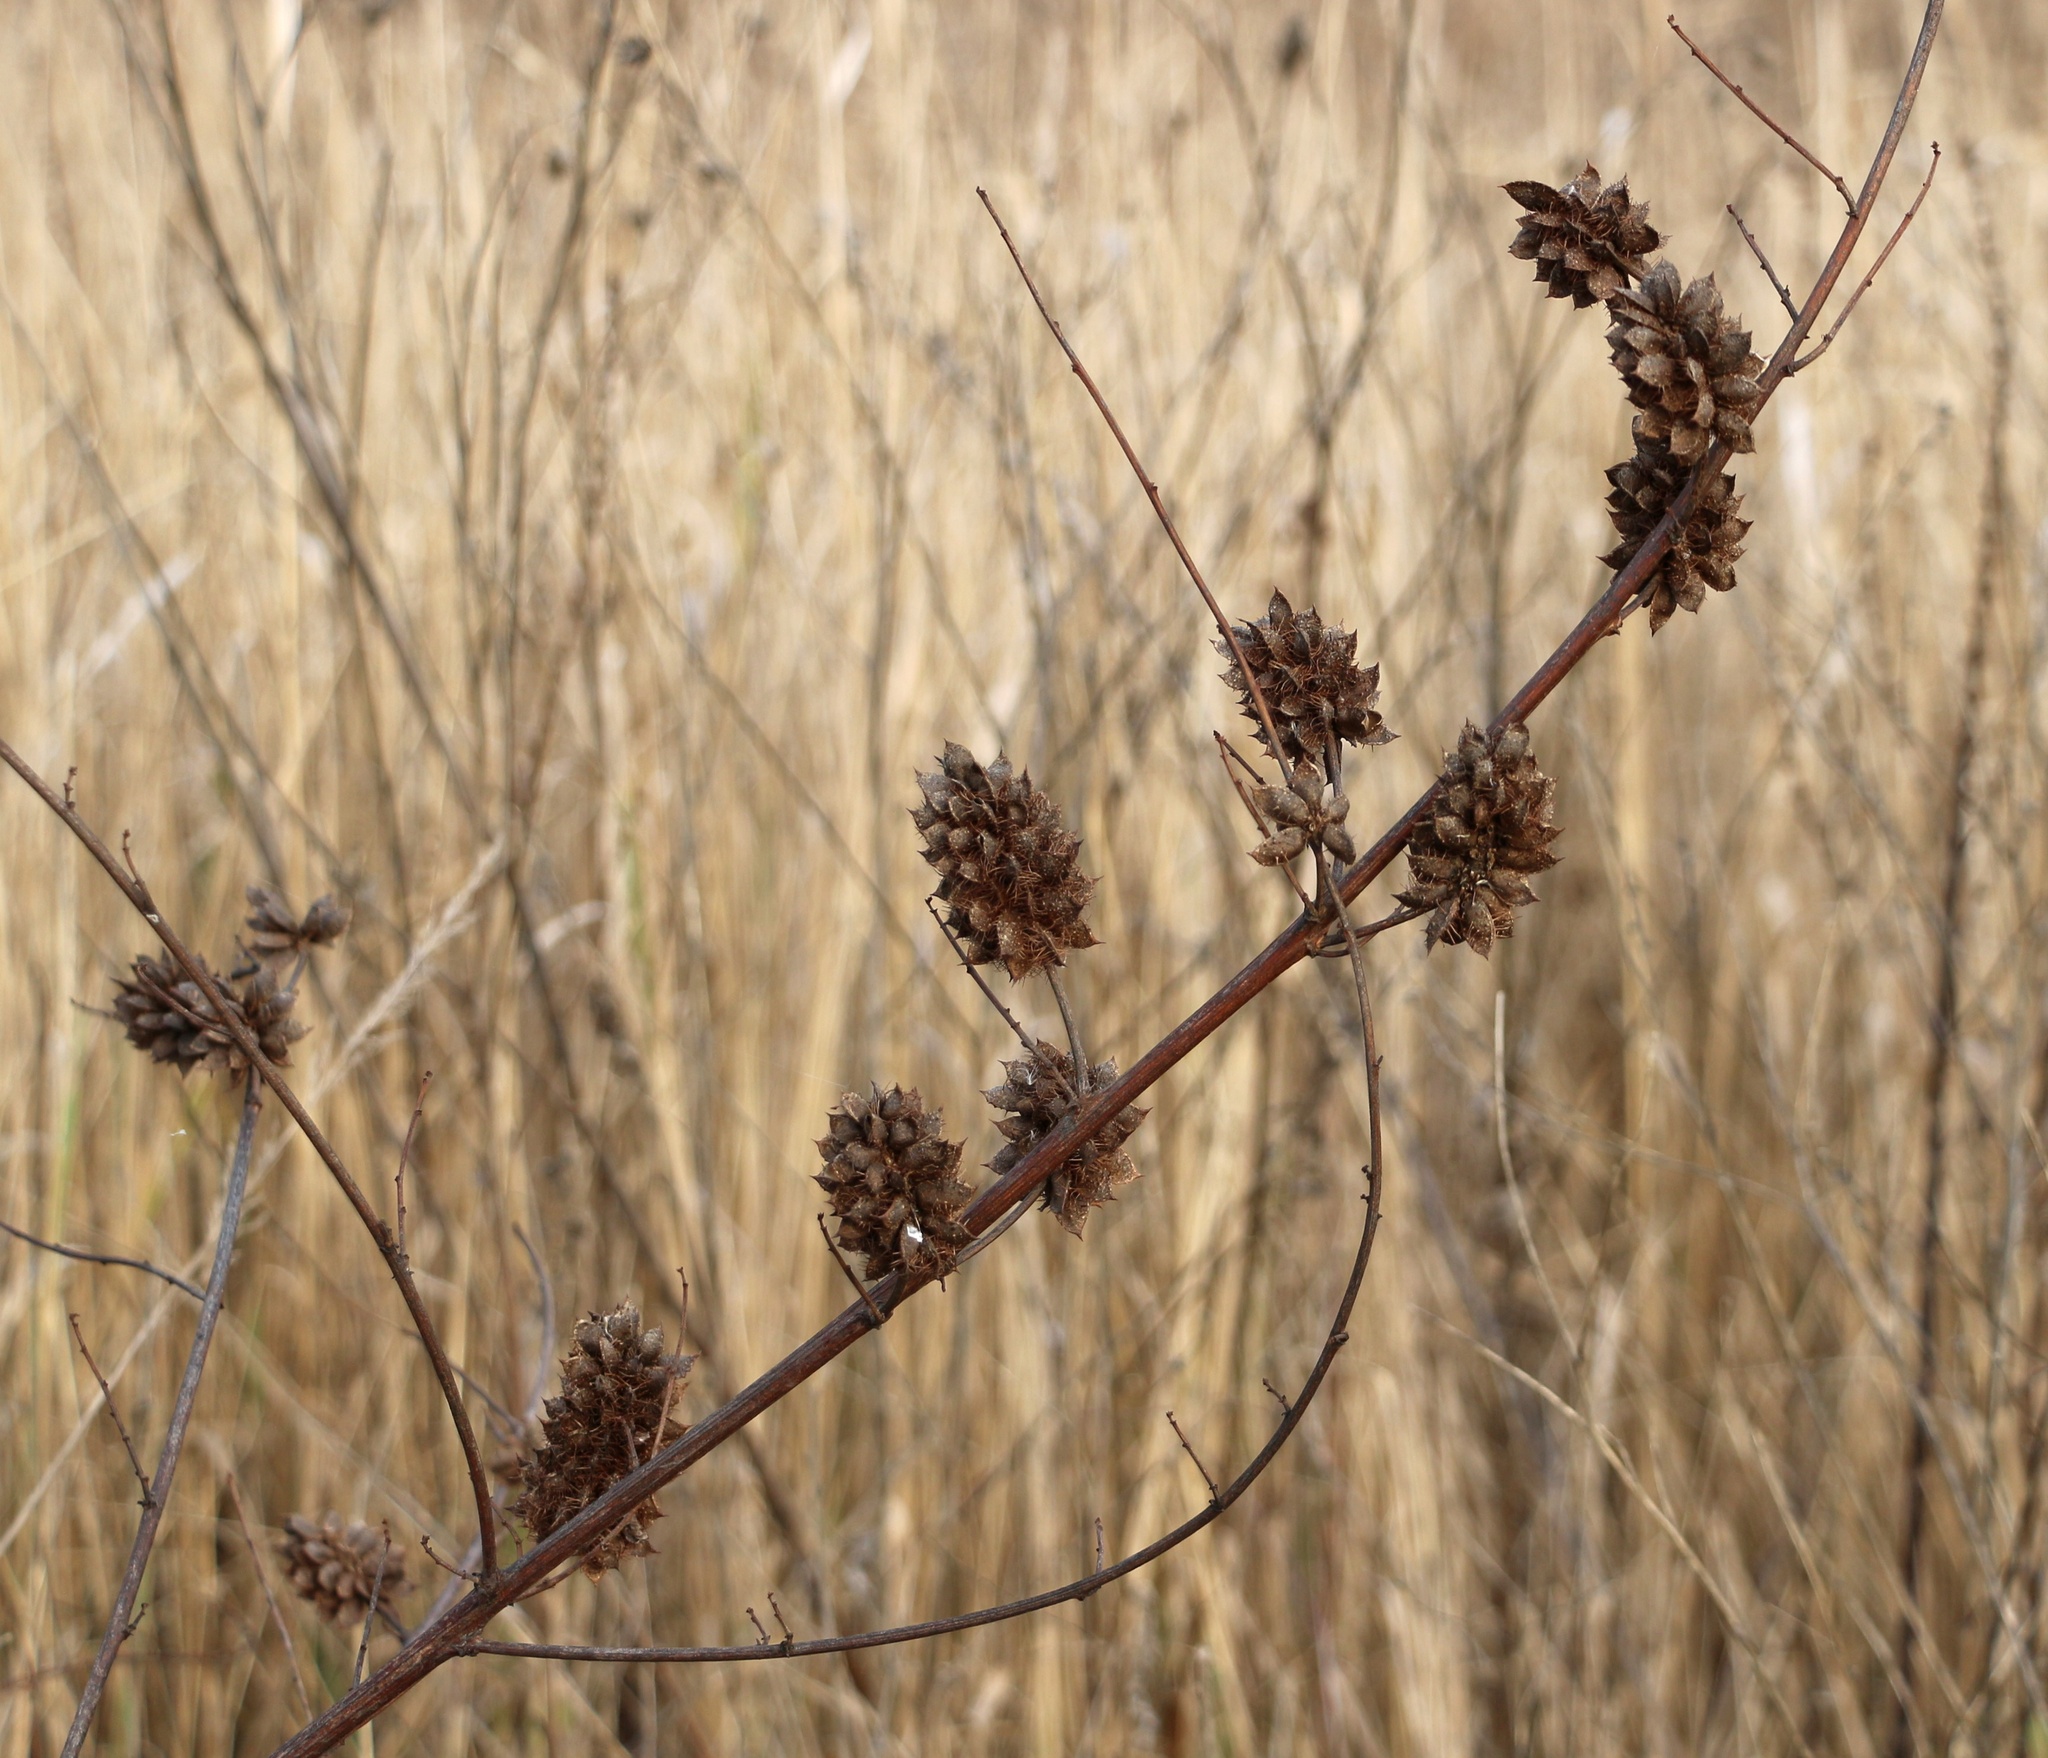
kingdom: Plantae
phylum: Tracheophyta
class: Magnoliopsida
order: Fabales
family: Fabaceae
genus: Glycyrrhiza
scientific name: Glycyrrhiza echinata
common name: German liquorice
